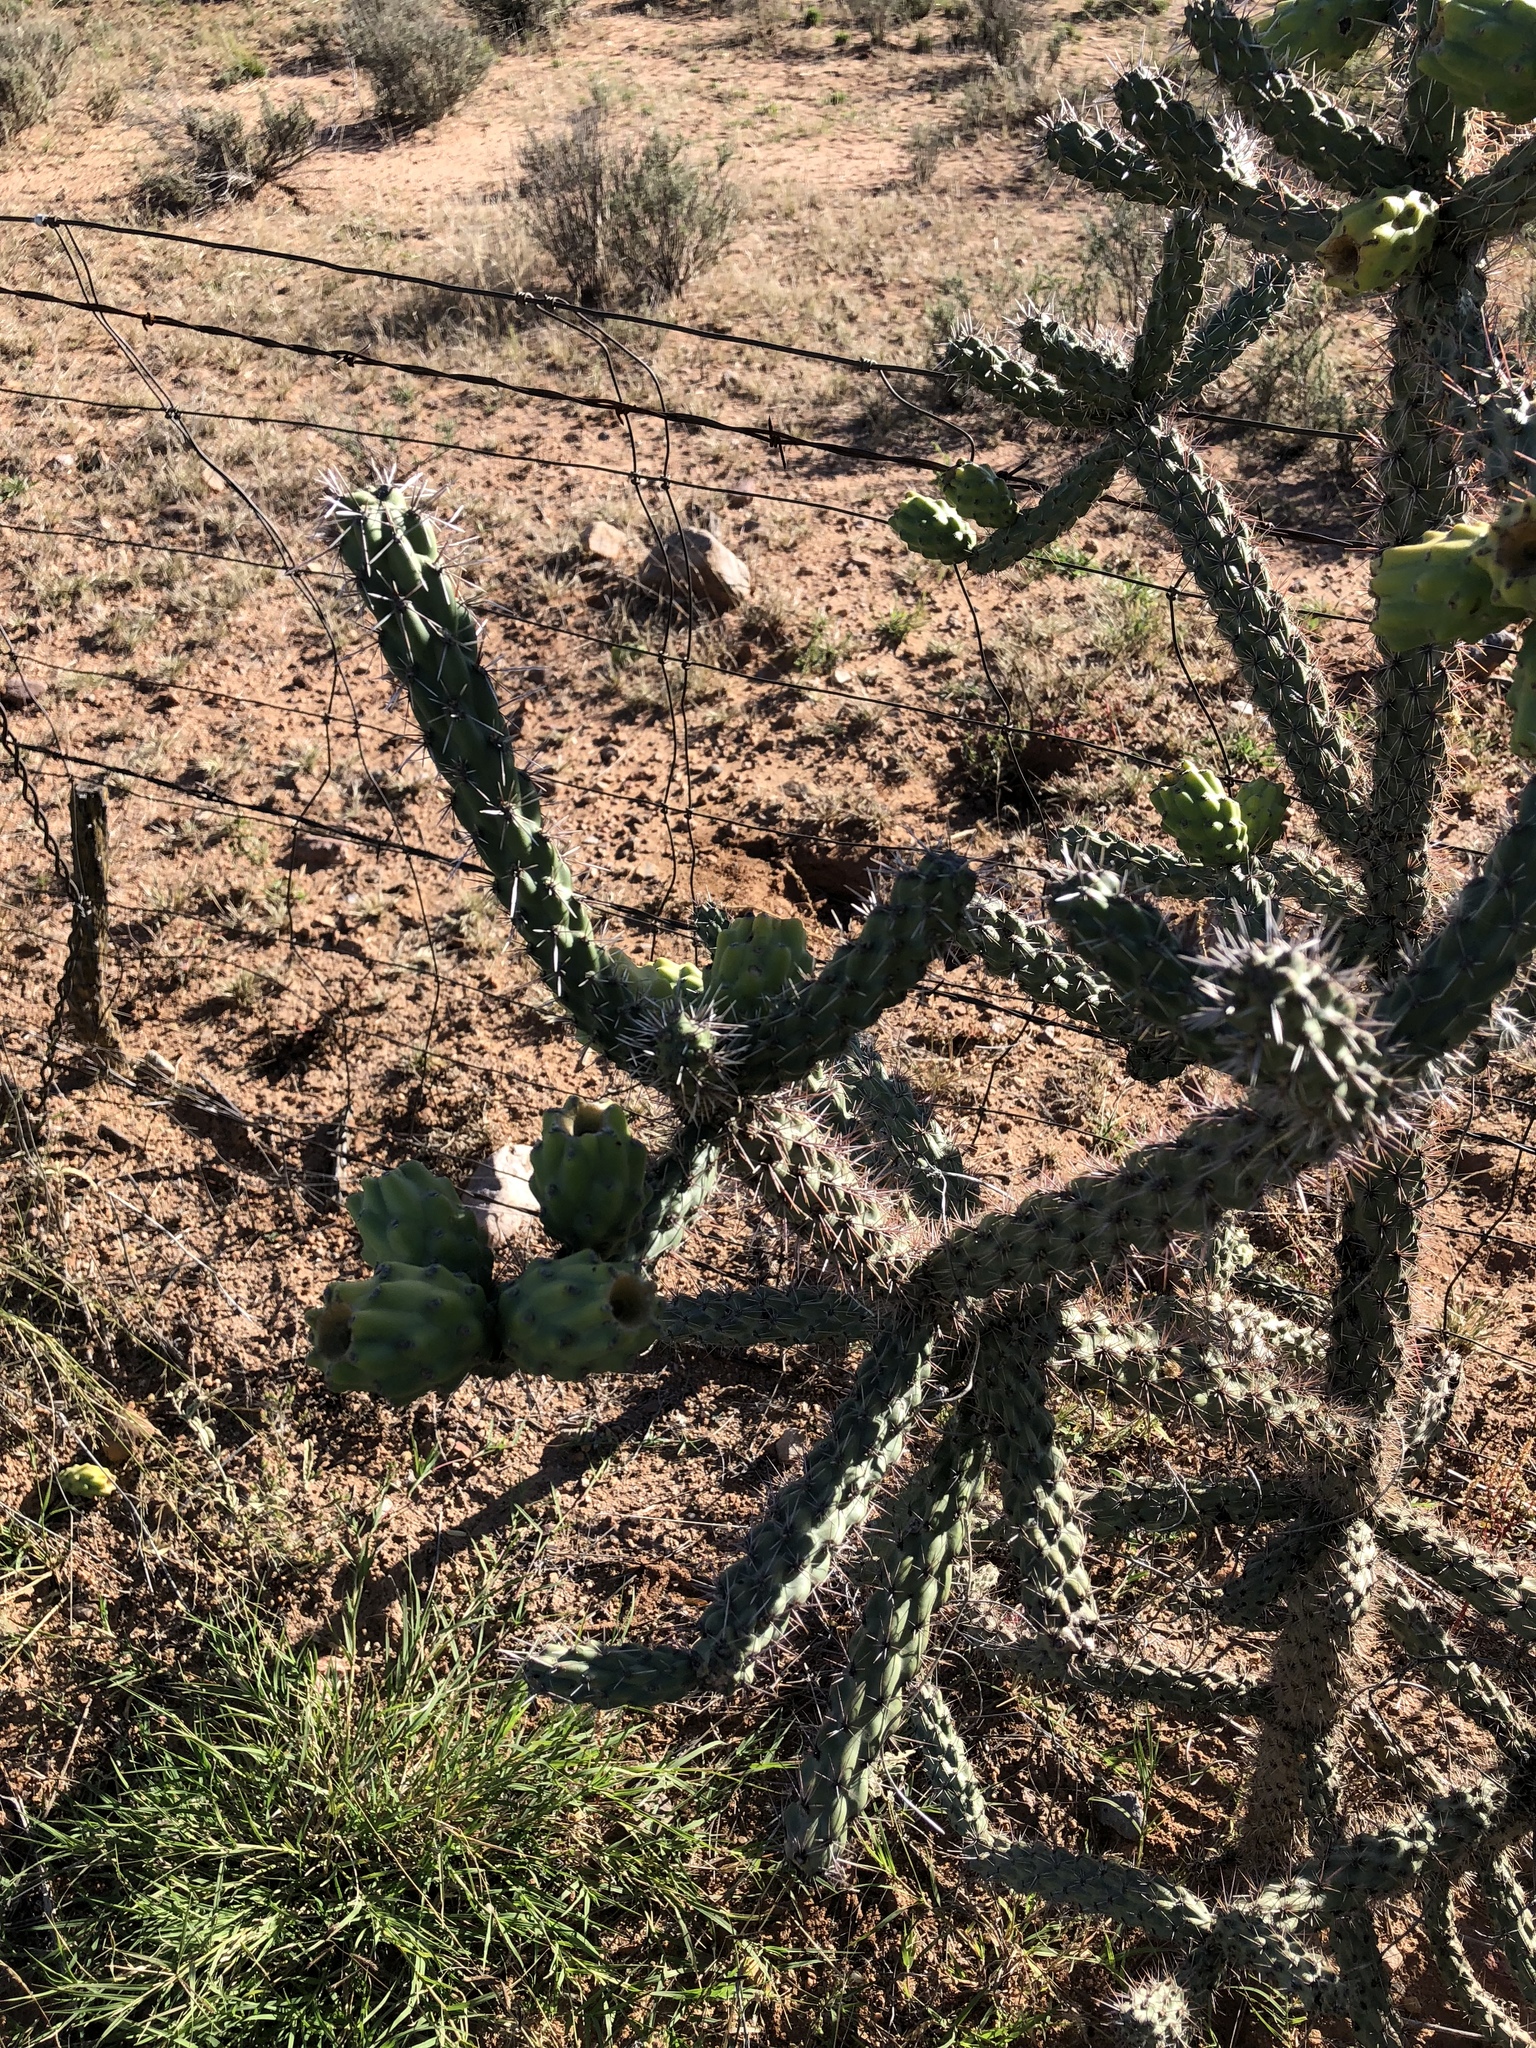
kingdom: Plantae
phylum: Tracheophyta
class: Magnoliopsida
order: Caryophyllales
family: Cactaceae
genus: Cylindropuntia
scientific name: Cylindropuntia imbricata
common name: Candelabrum cactus
